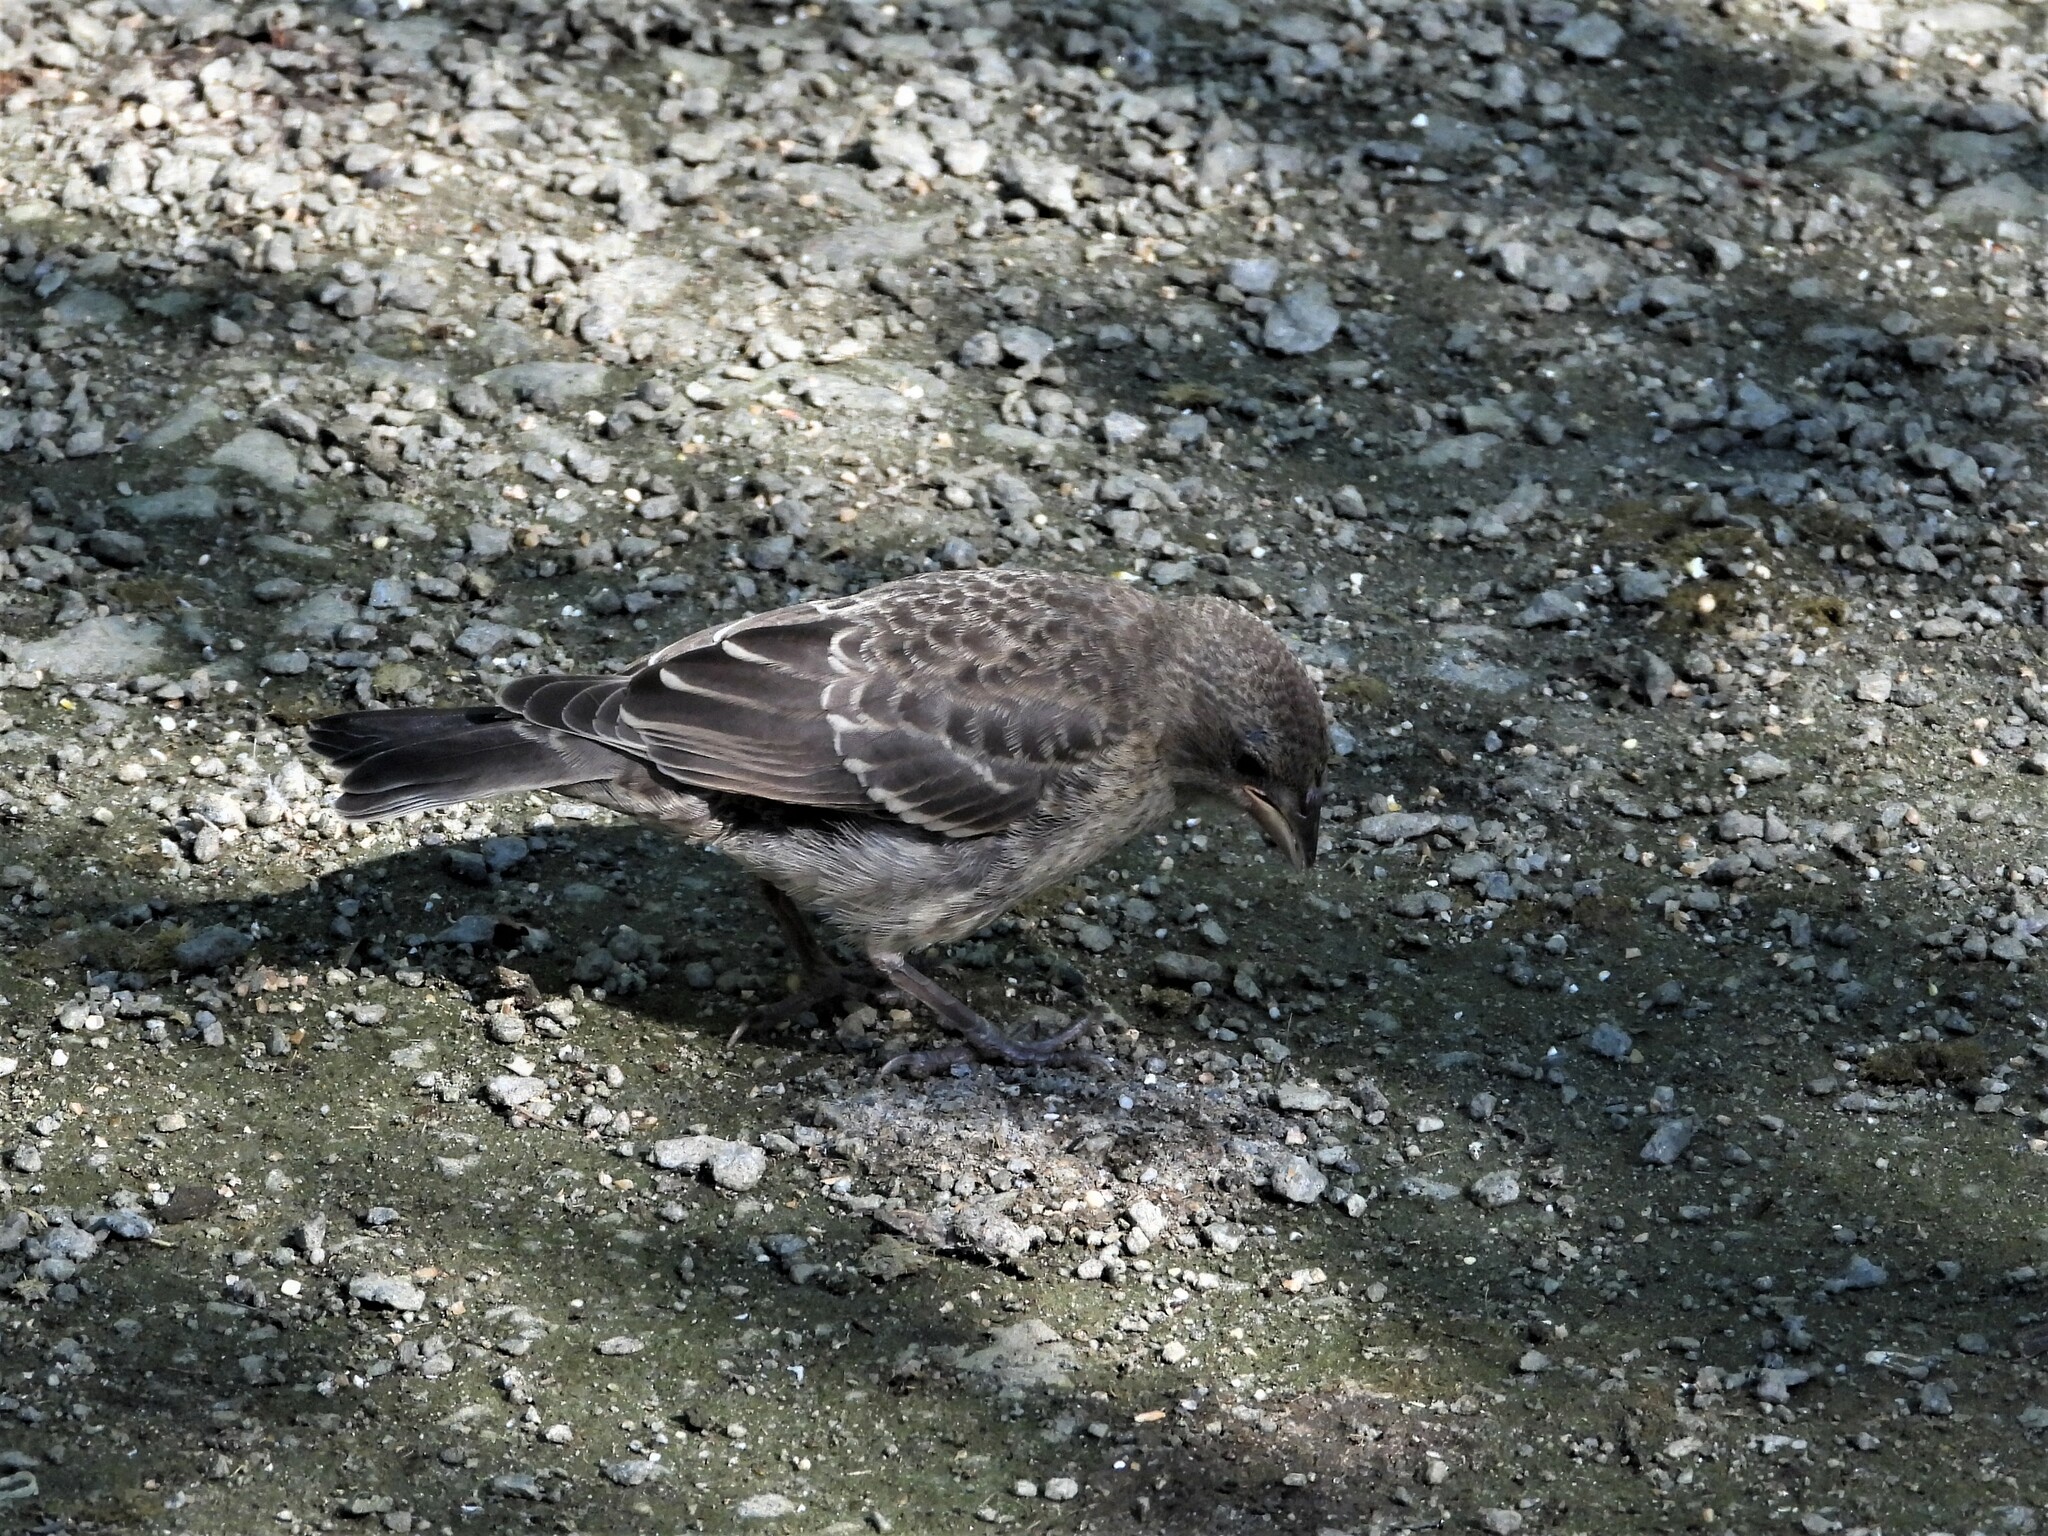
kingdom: Animalia
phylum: Chordata
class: Aves
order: Passeriformes
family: Icteridae
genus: Molothrus
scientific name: Molothrus ater
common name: Brown-headed cowbird
